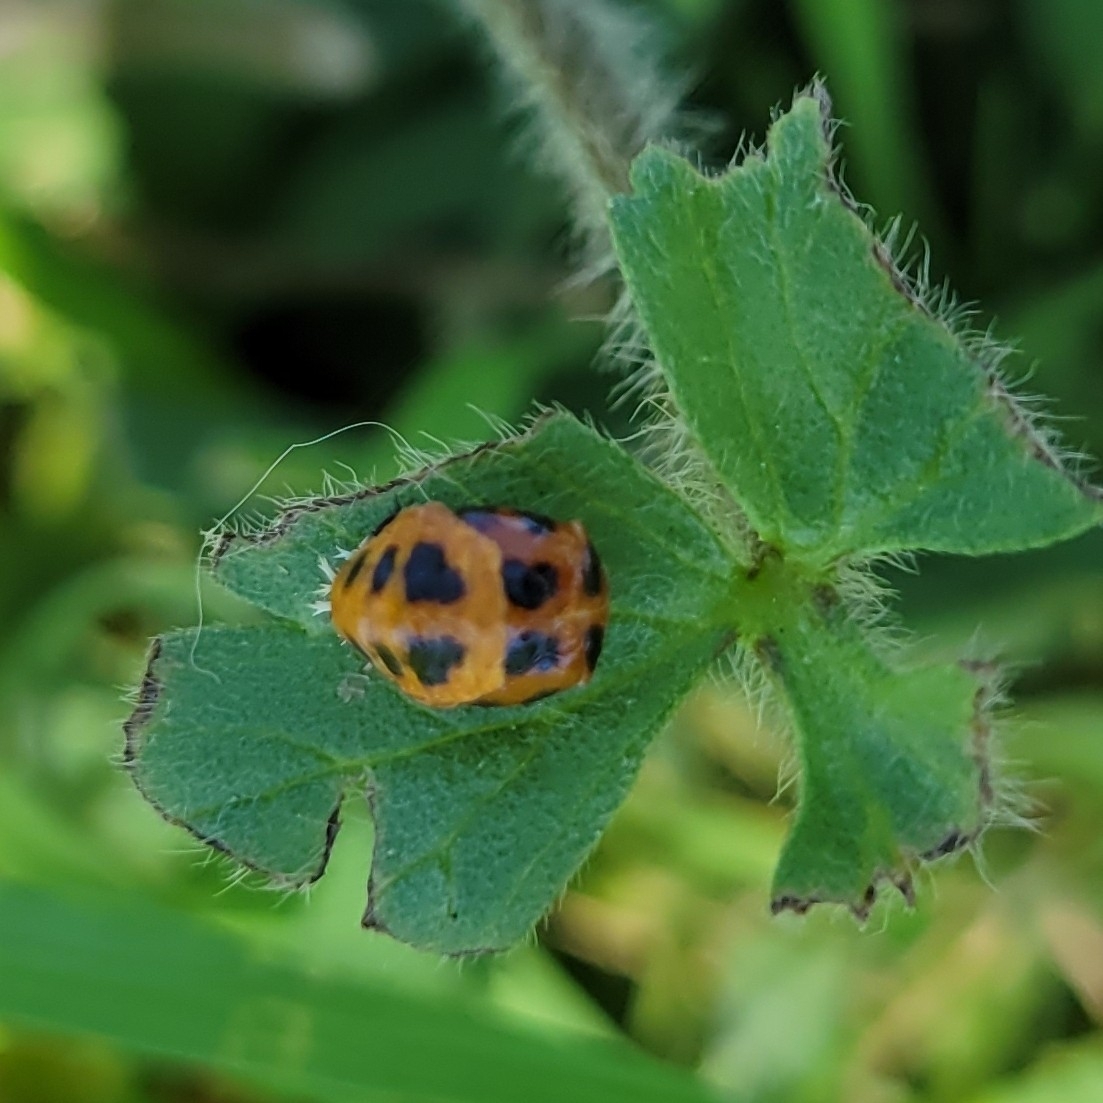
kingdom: Animalia
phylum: Arthropoda
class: Insecta
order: Coleoptera
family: Coccinellidae
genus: Harmonia
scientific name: Harmonia axyridis
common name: Harlequin ladybird
